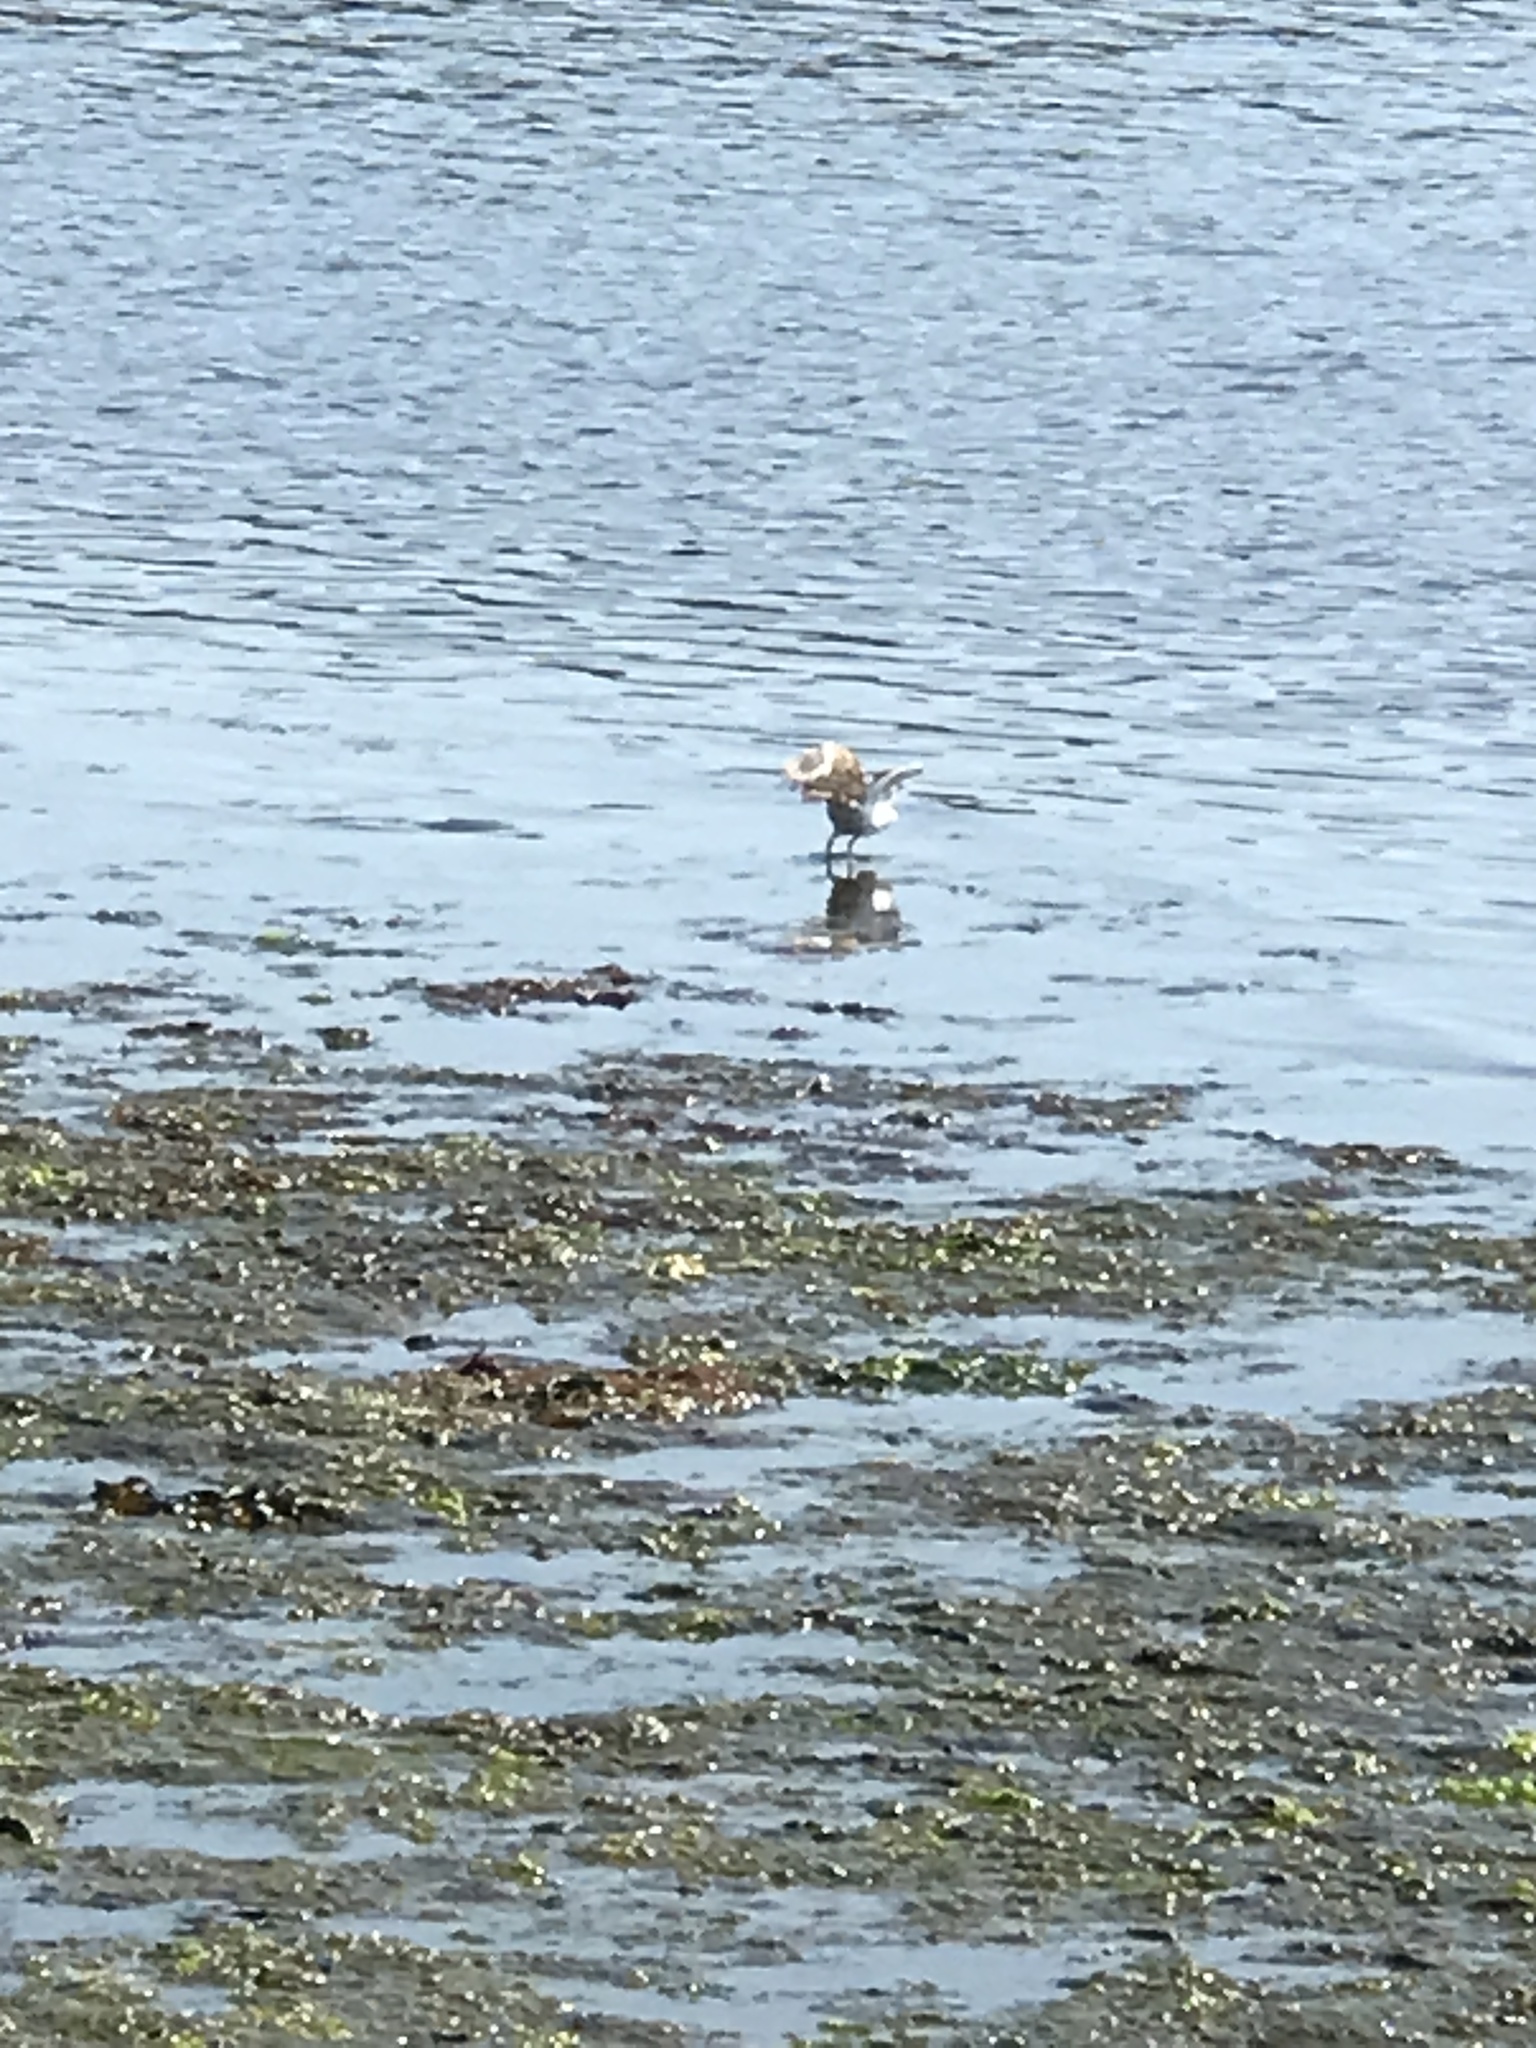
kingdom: Animalia
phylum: Chordata
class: Aves
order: Charadriiformes
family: Charadriidae
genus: Charadrius
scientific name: Charadrius vociferus
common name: Killdeer
